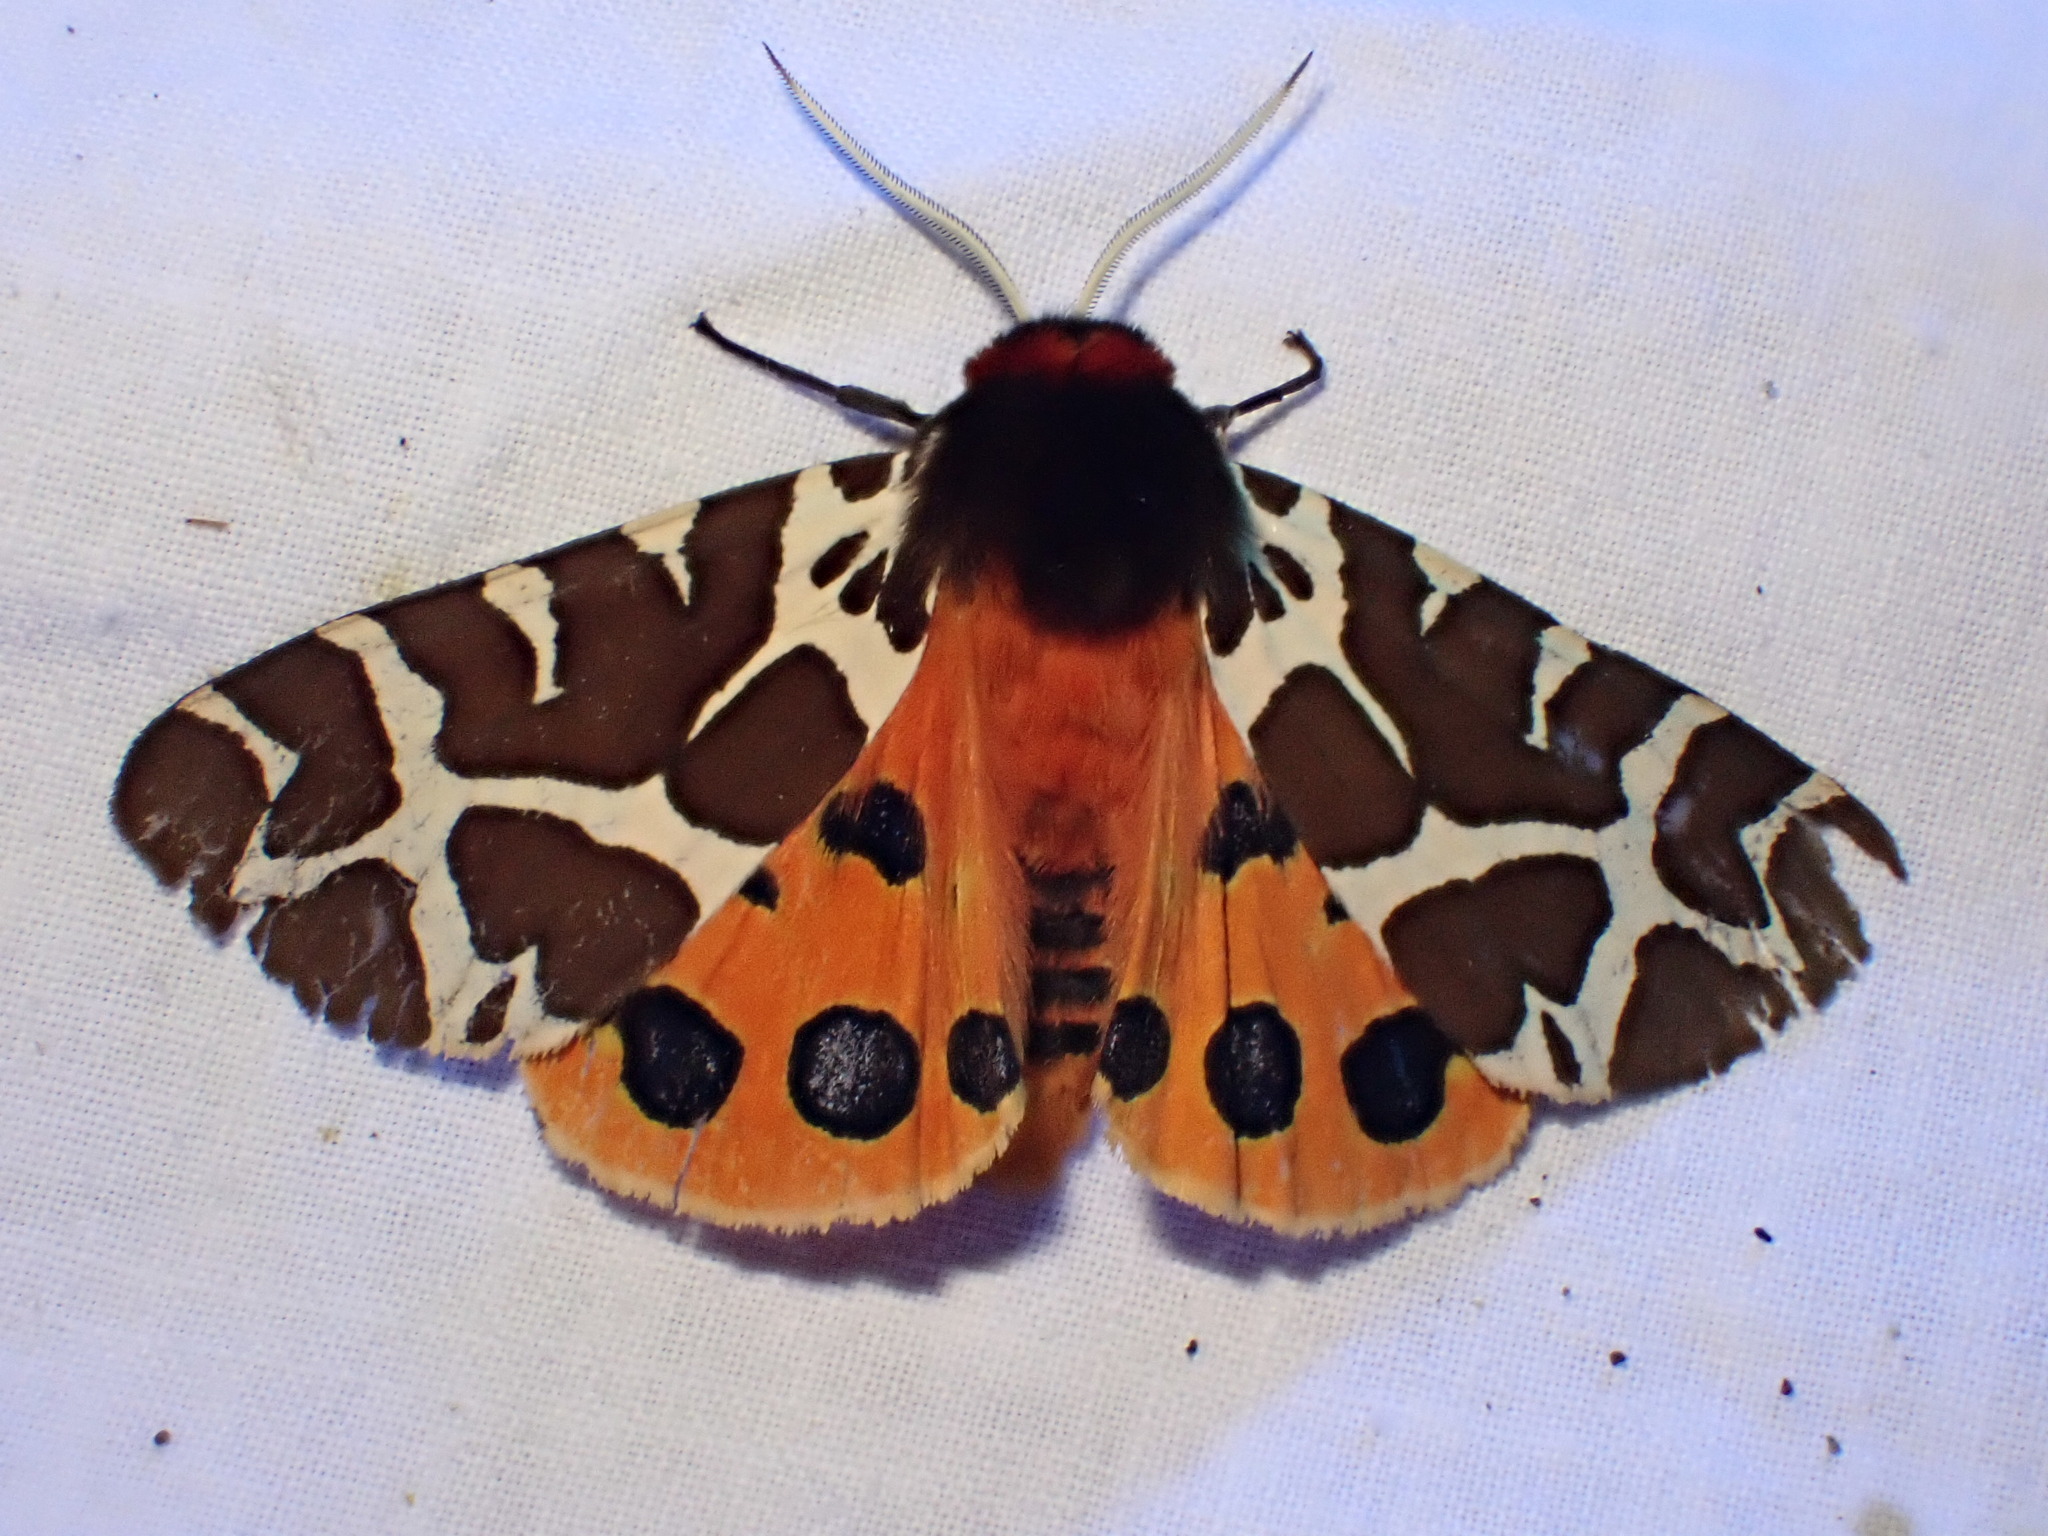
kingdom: Animalia
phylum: Arthropoda
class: Insecta
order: Lepidoptera
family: Erebidae
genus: Arctia
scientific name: Arctia caja
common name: Garden tiger
